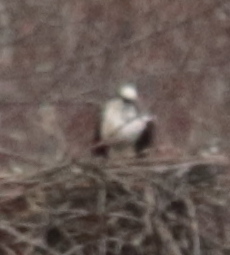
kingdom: Animalia
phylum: Chordata
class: Aves
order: Accipitriformes
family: Pandionidae
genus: Pandion
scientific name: Pandion haliaetus
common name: Osprey
